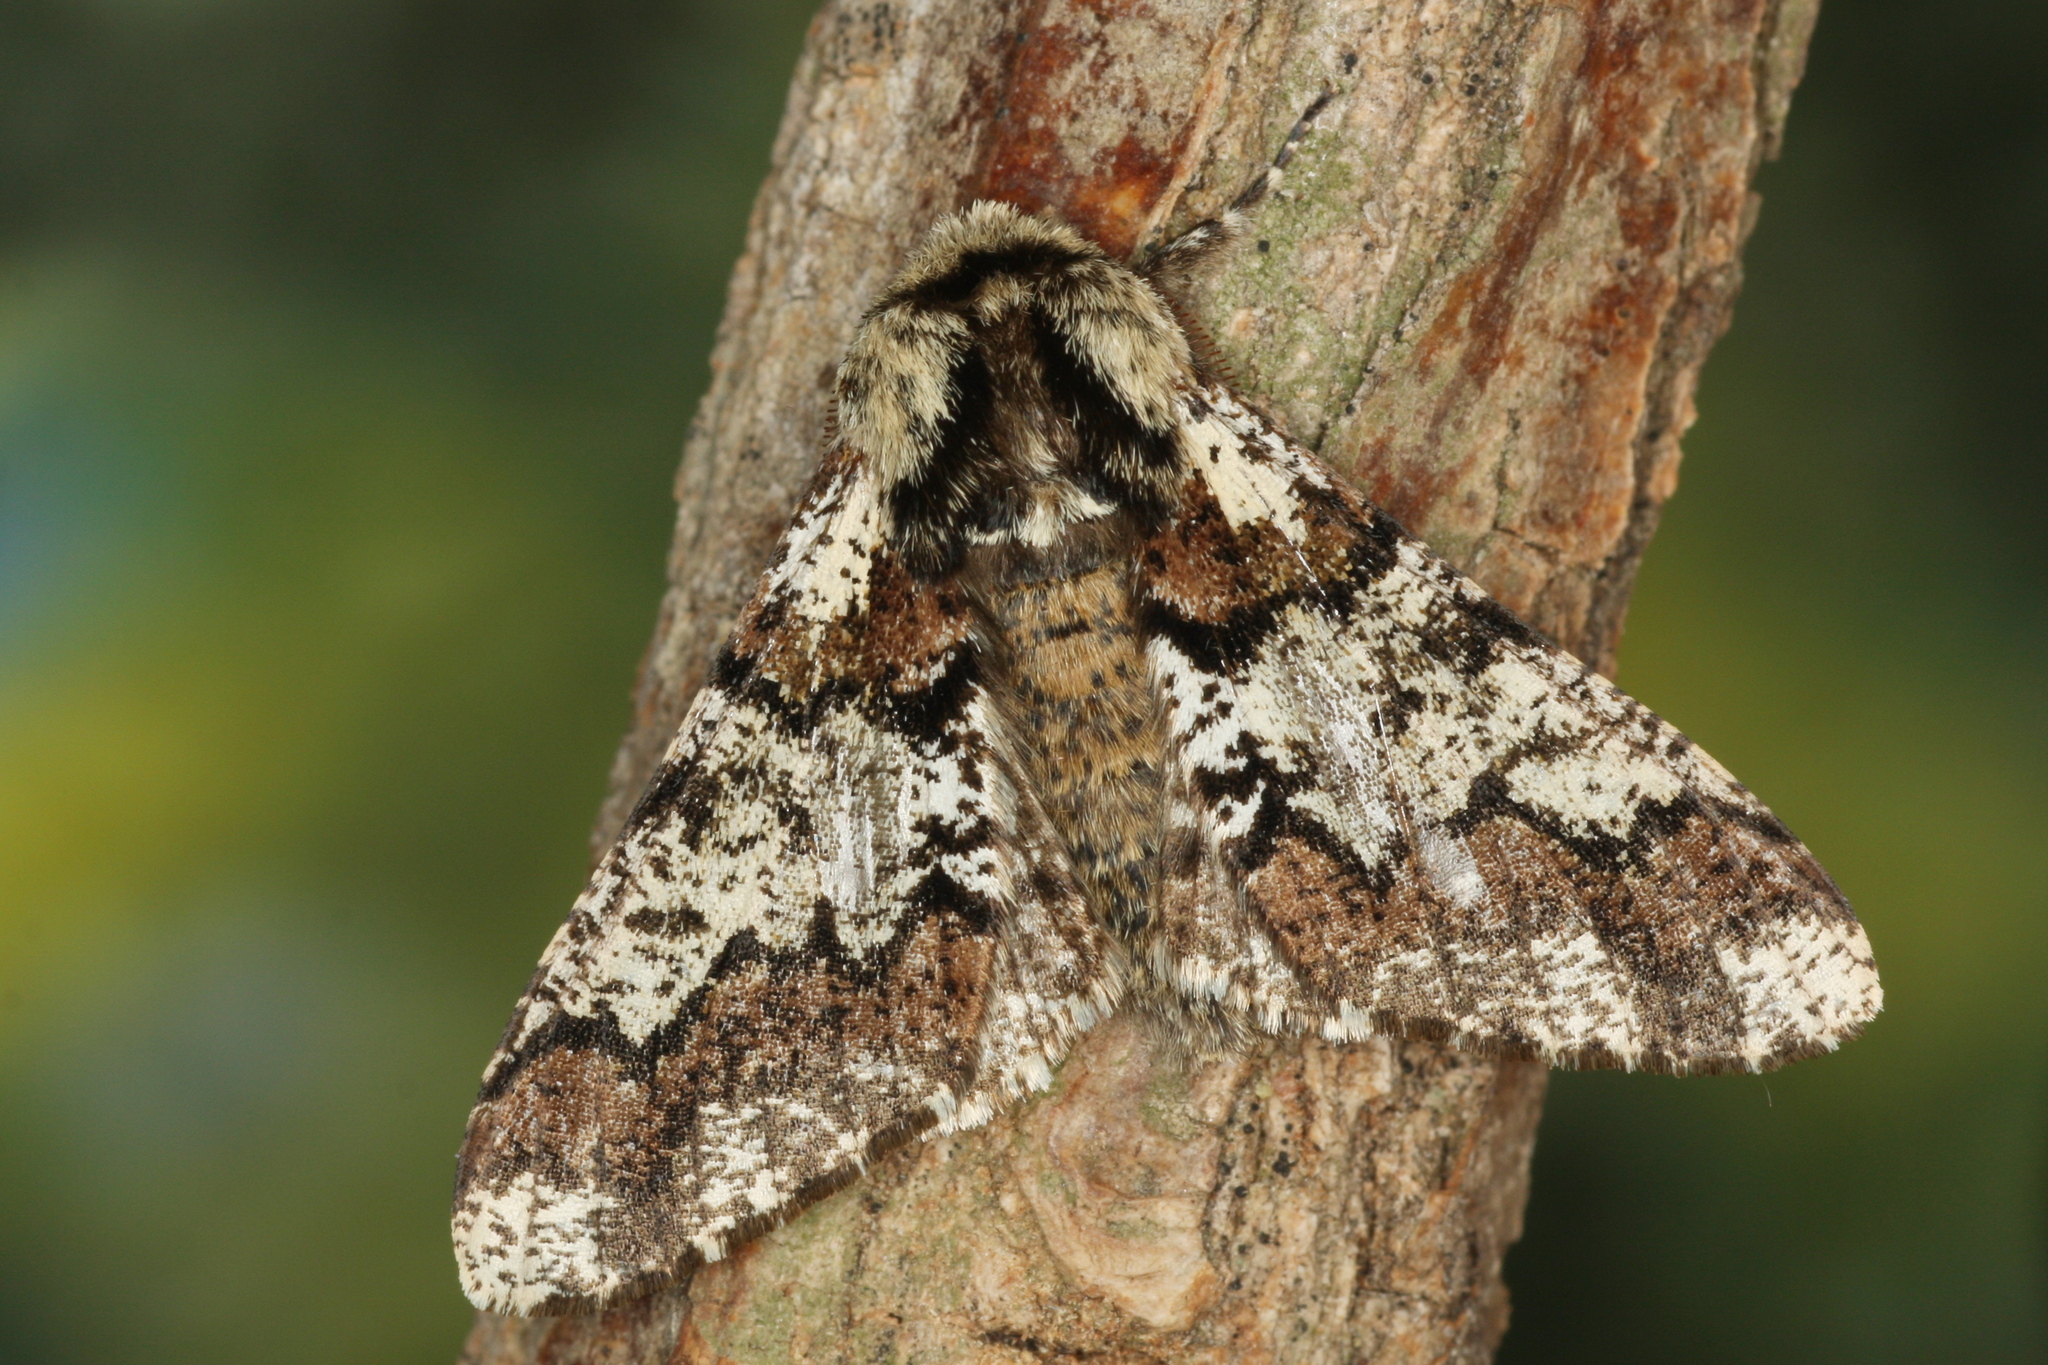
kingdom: Animalia
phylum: Arthropoda
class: Insecta
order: Lepidoptera
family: Geometridae
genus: Biston
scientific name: Biston strataria
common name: Oak beauty
